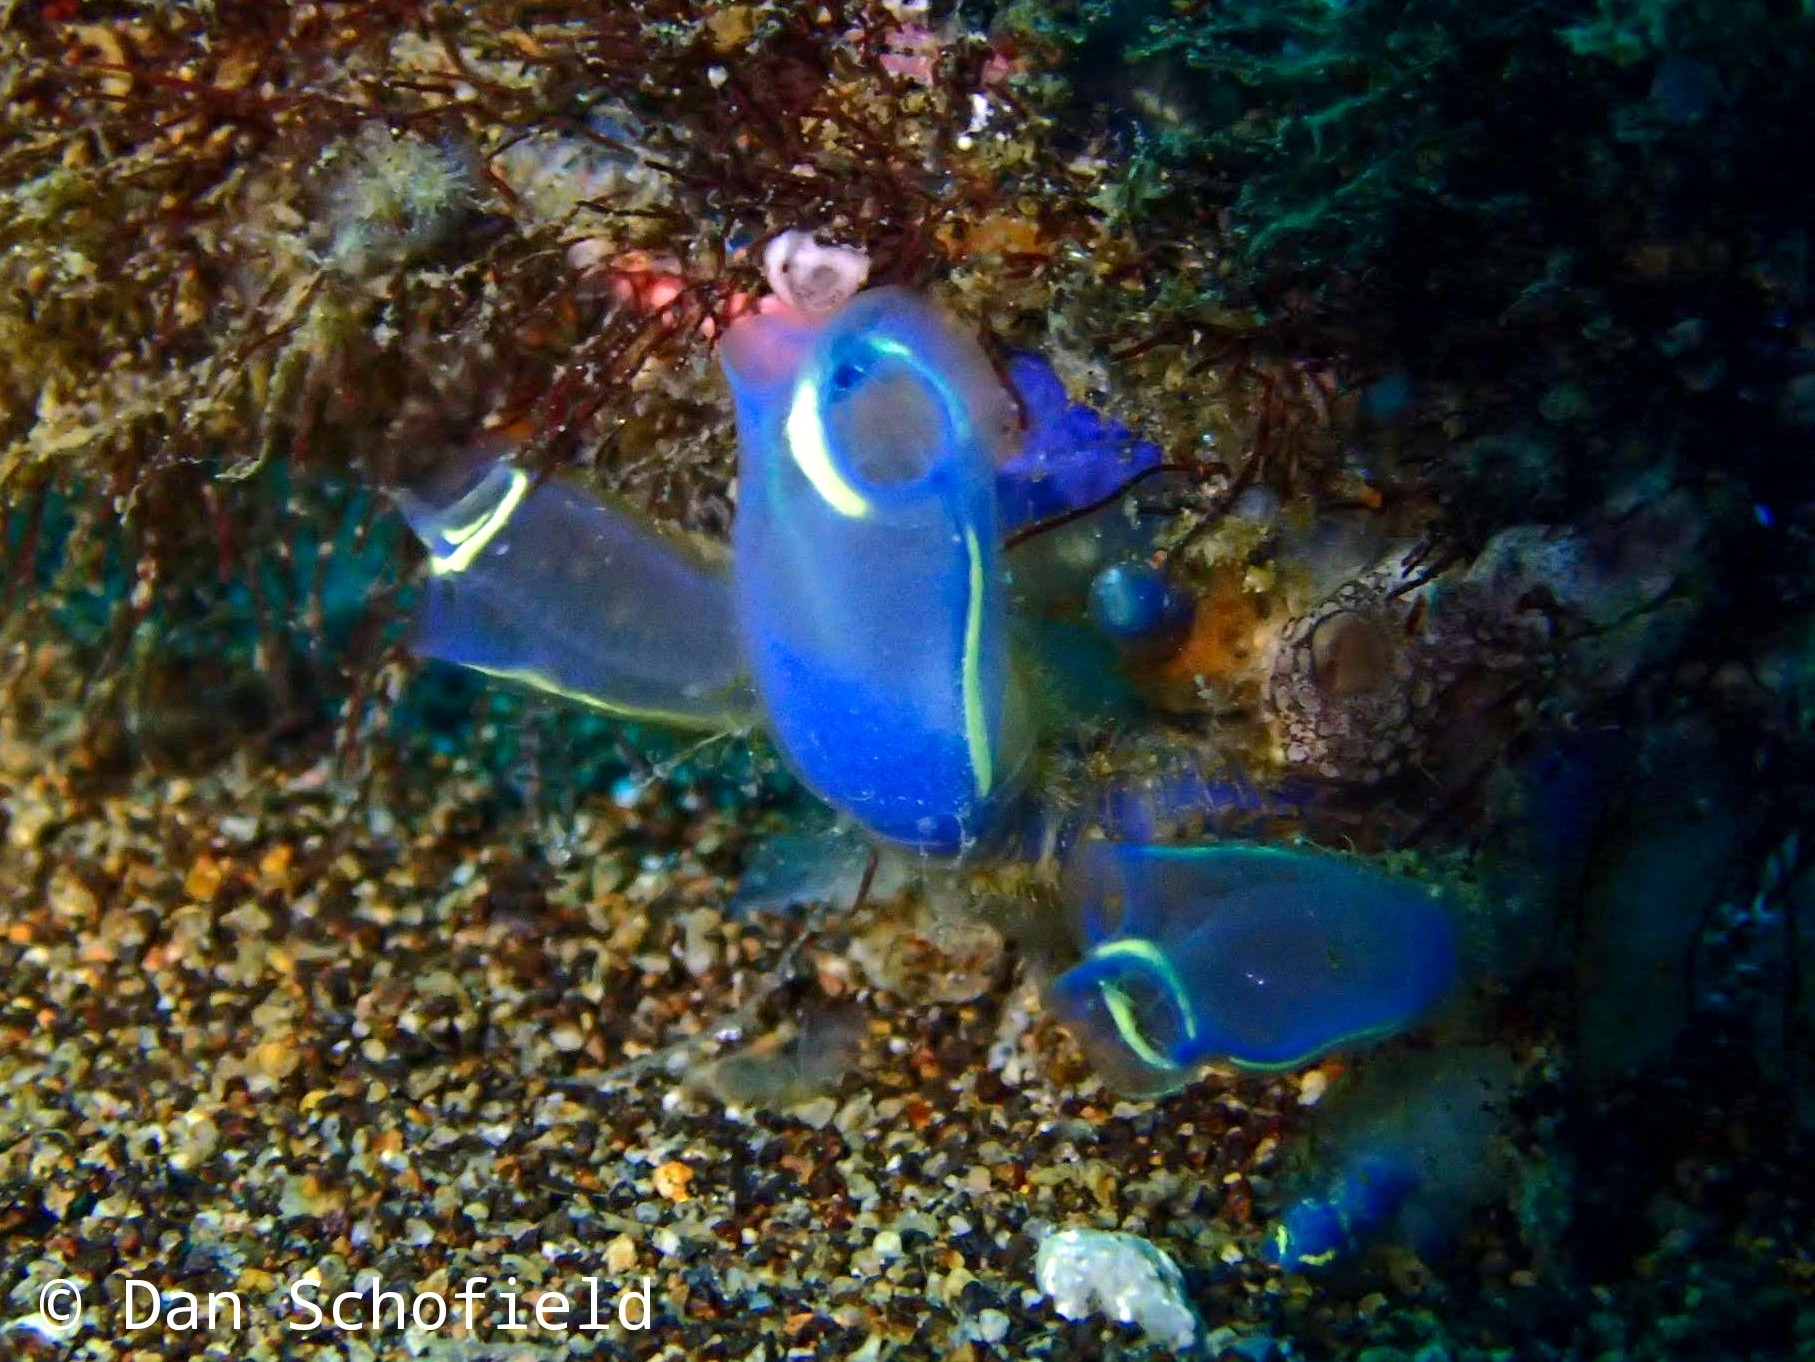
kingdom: Animalia
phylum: Chordata
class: Ascidiacea
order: Aplousobranchia
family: Clavelinidae
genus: Clavelina
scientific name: Clavelina cyclus
